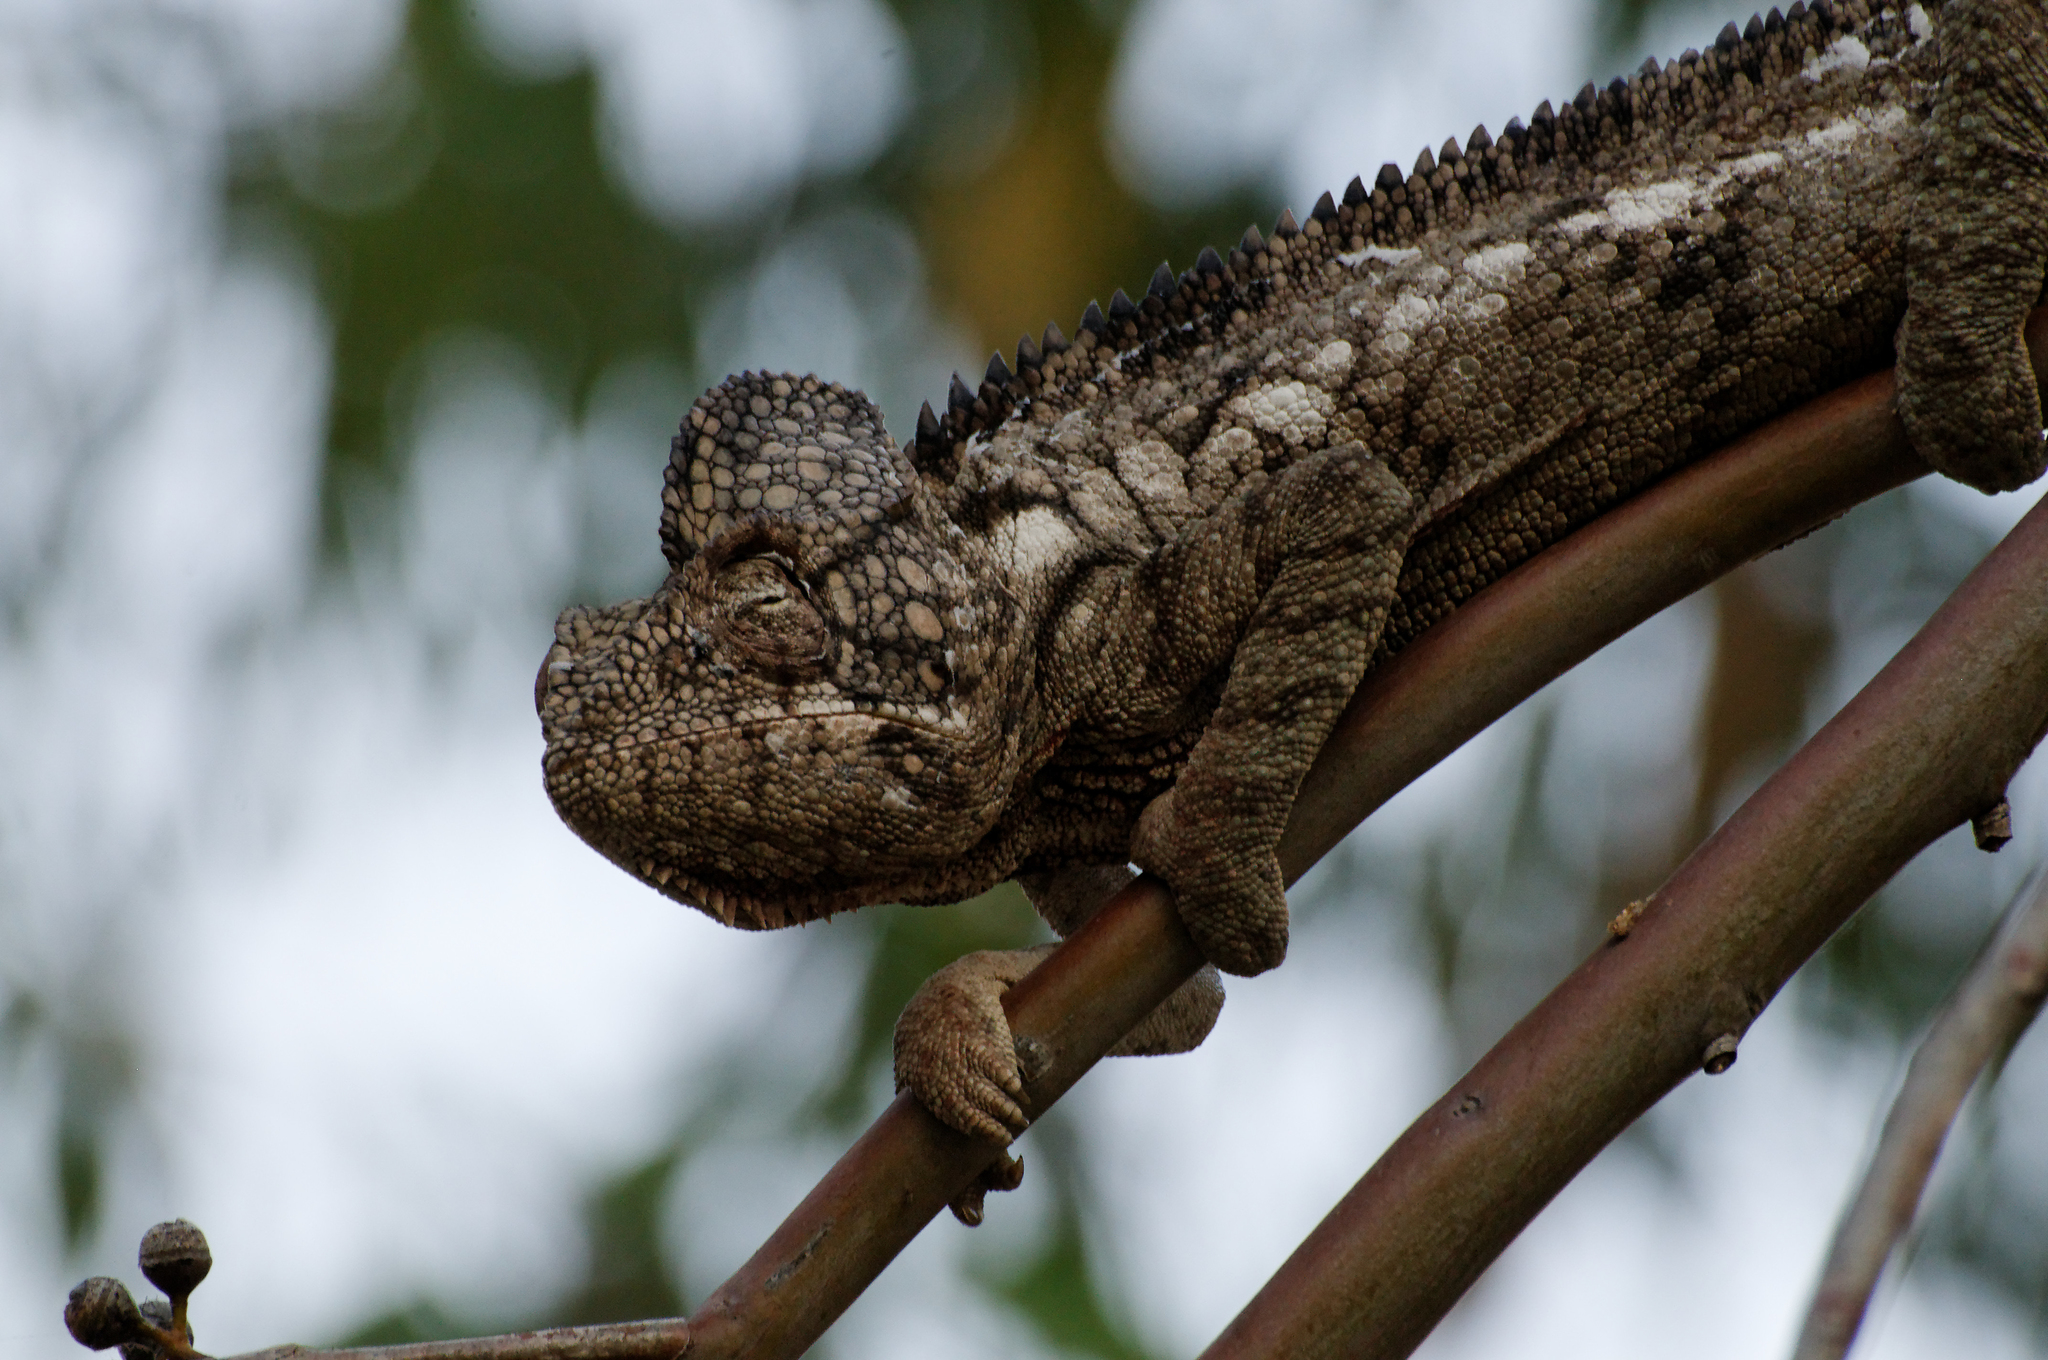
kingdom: Animalia
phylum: Chordata
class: Squamata
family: Chamaeleonidae
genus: Furcifer
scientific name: Furcifer oustaleti
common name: Oustalet's chameleon
